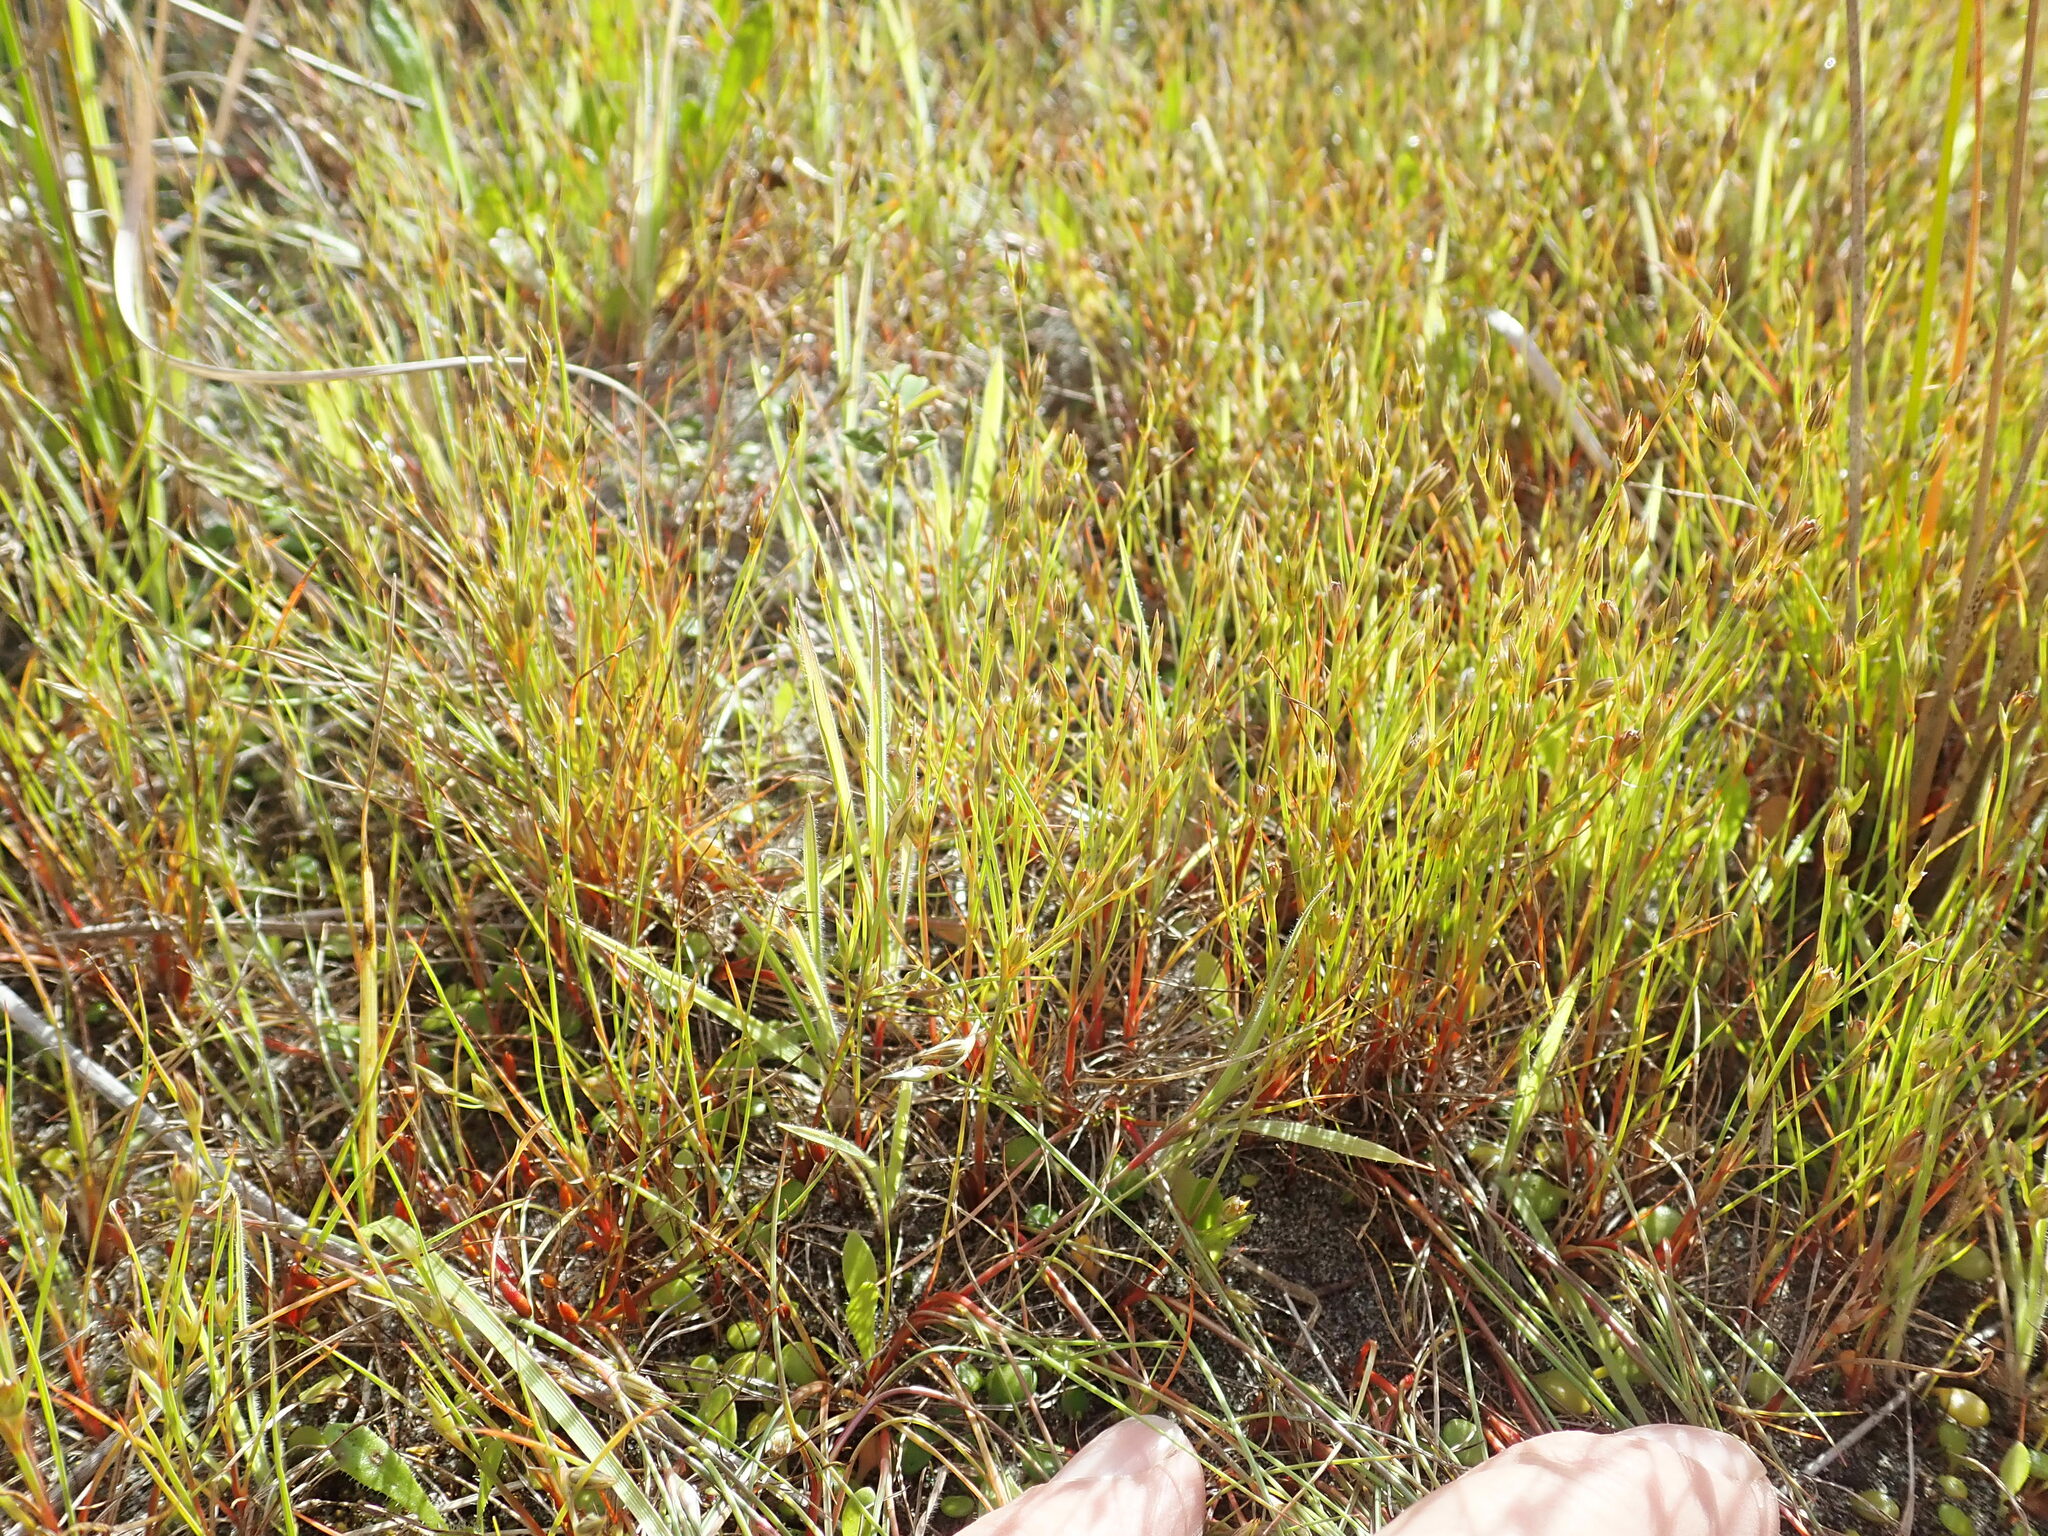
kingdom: Plantae
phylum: Tracheophyta
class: Liliopsida
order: Poales
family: Juncaceae
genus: Juncus
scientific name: Juncus bufonius
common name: Toad rush
